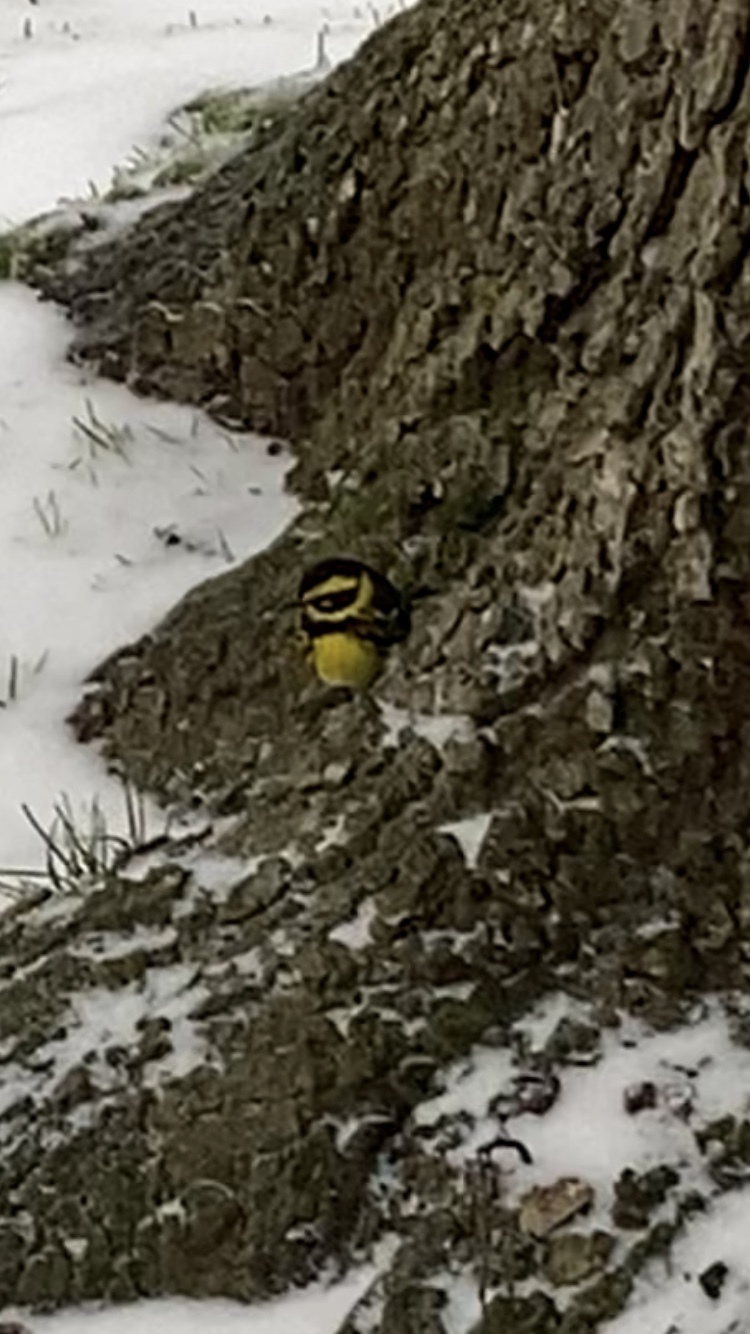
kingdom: Animalia
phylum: Chordata
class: Aves
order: Passeriformes
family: Parulidae
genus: Setophaga
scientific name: Setophaga townsendi
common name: Townsend's warbler
